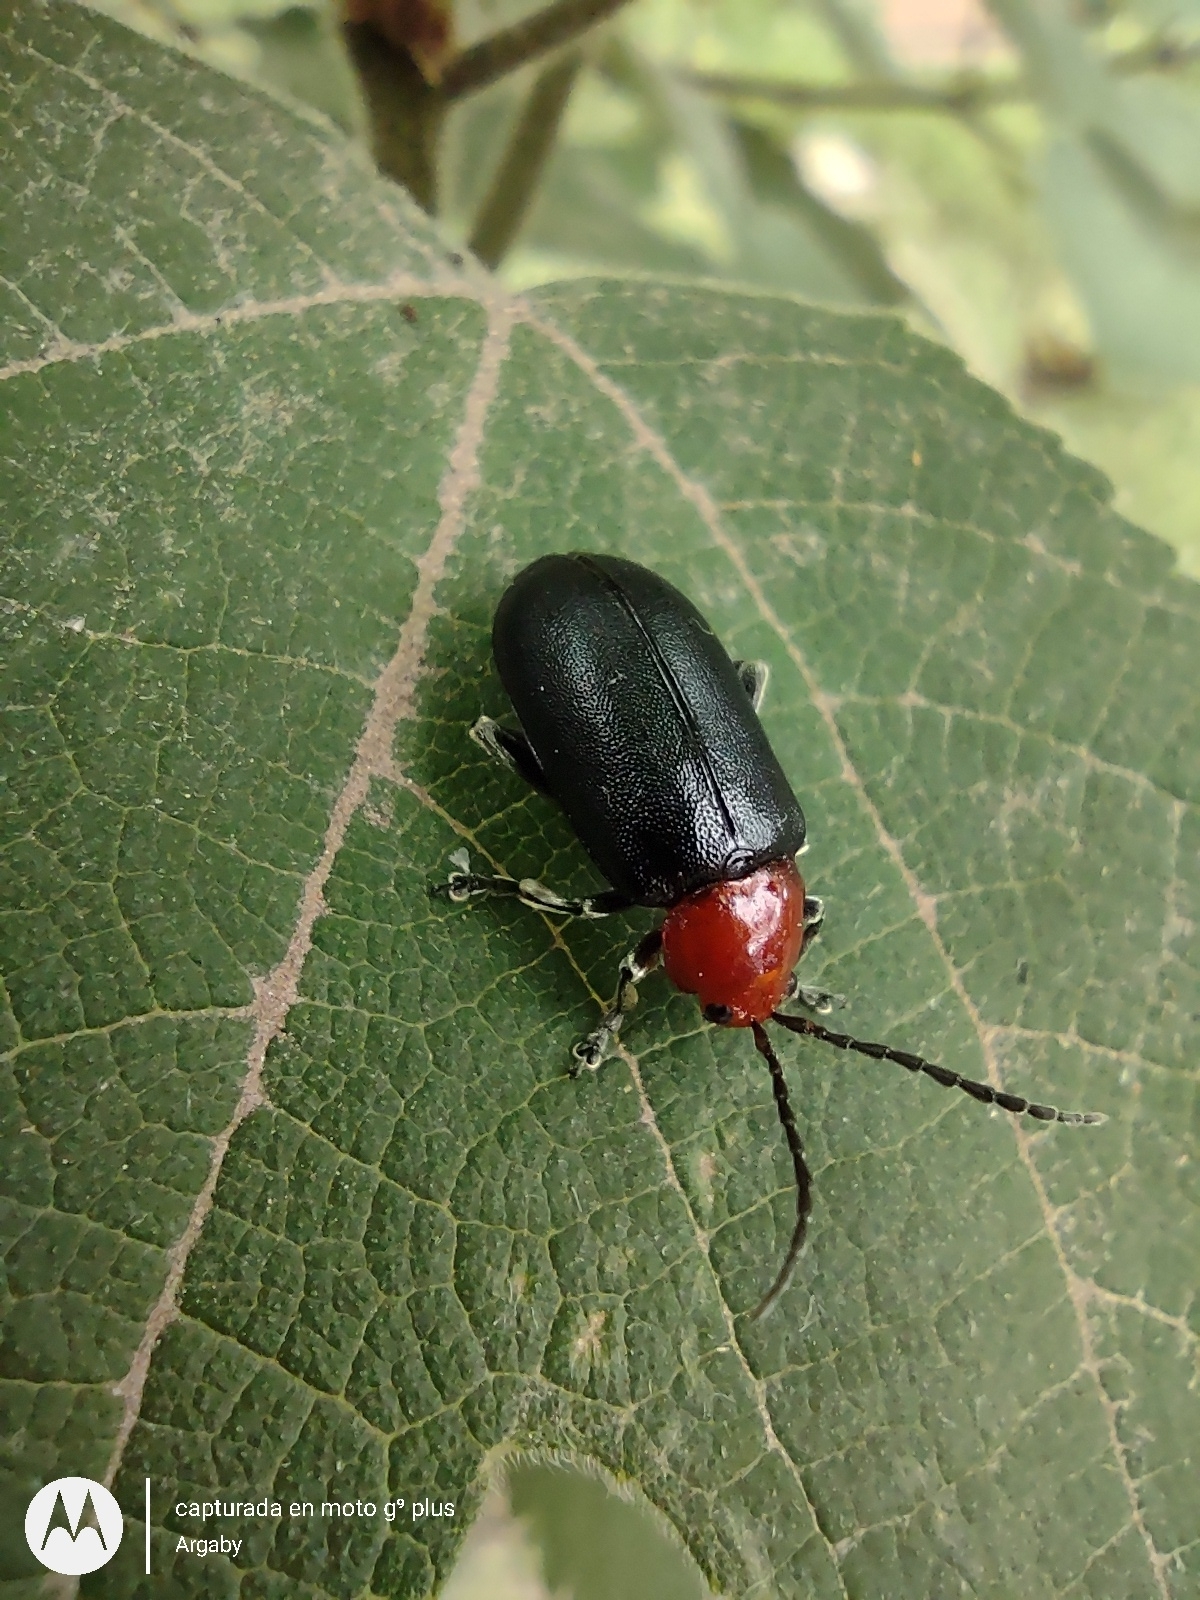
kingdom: Animalia
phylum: Arthropoda
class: Insecta
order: Coleoptera
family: Chrysomelidae
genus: Cacoscelis
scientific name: Cacoscelis
